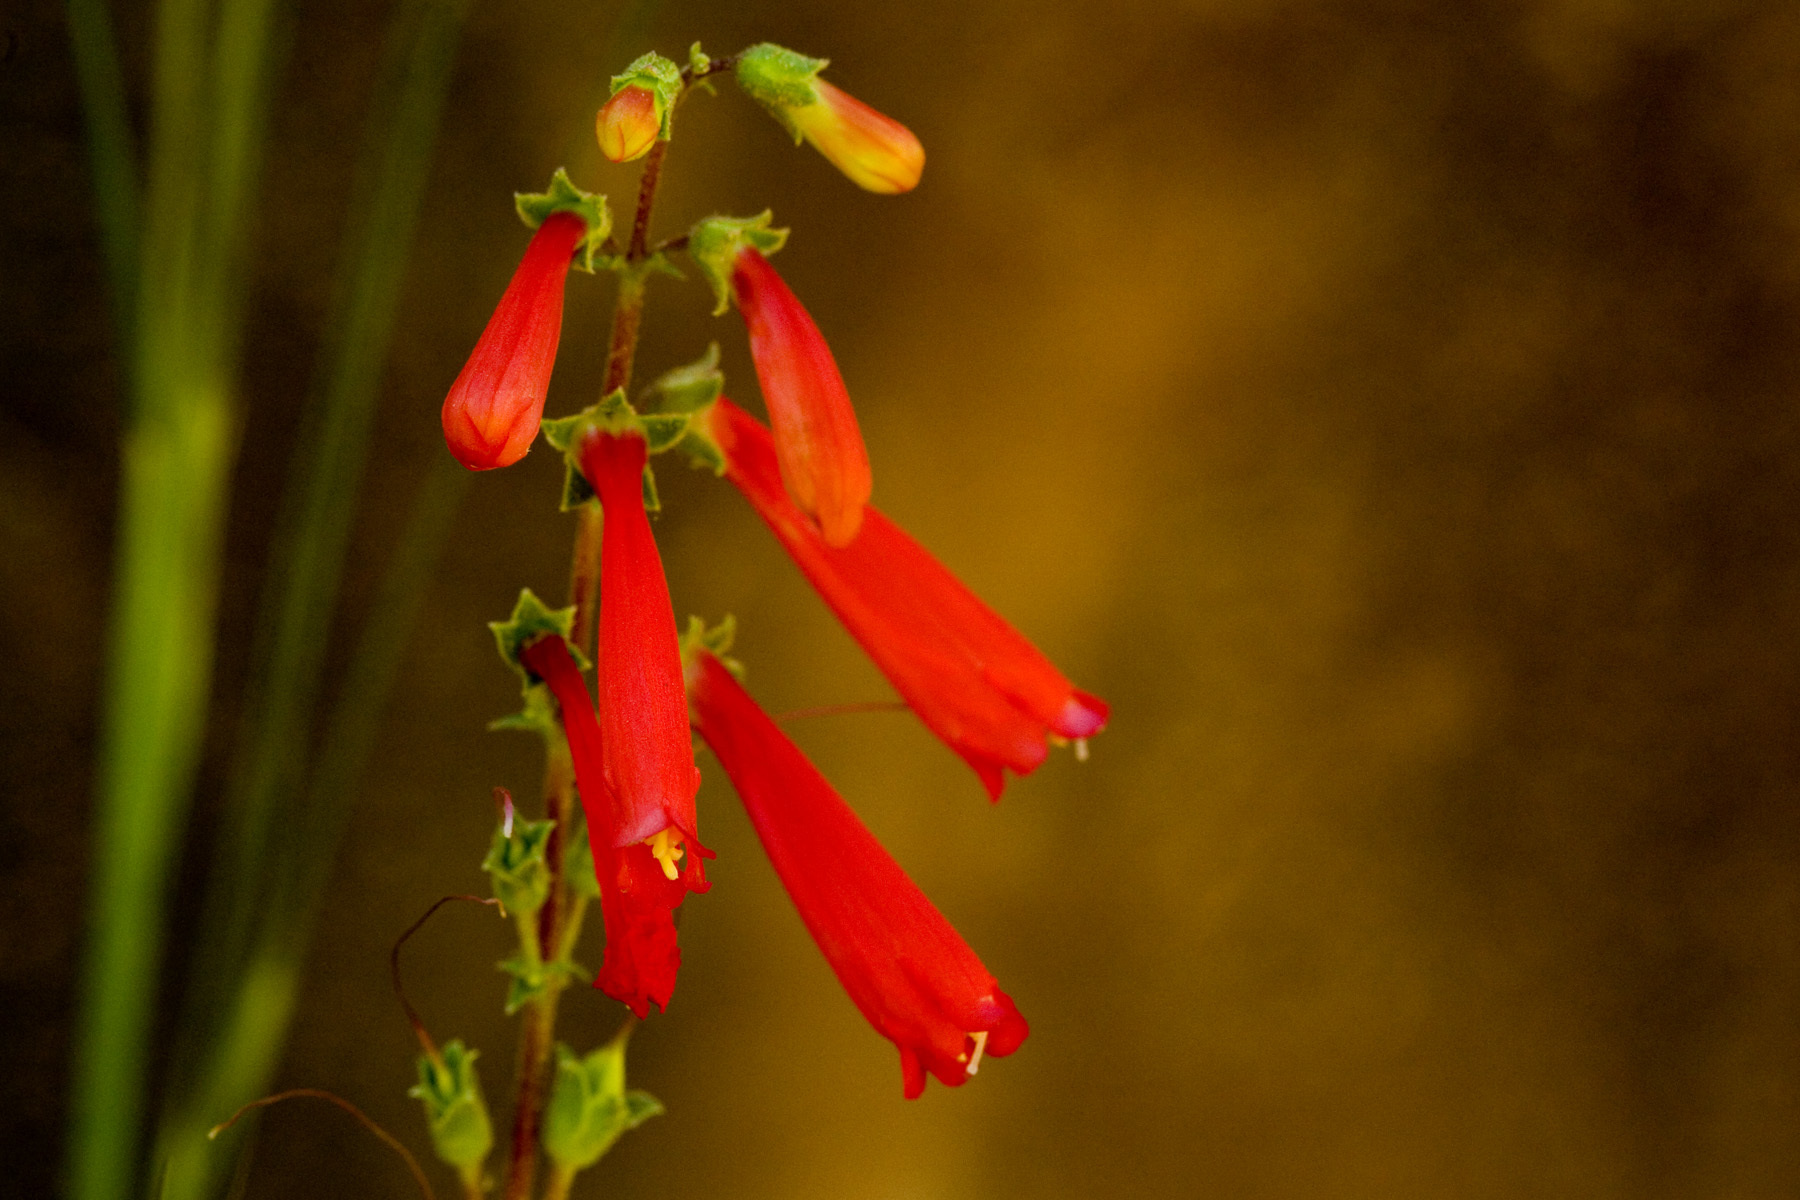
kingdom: Plantae
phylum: Tracheophyta
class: Magnoliopsida
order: Lamiales
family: Plantaginaceae
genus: Penstemon
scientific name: Penstemon eatonii
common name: Eaton's penstemon
